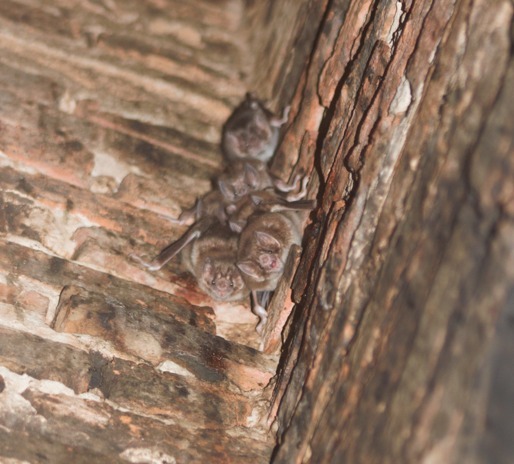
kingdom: Animalia
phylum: Chordata
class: Mammalia
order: Chiroptera
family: Phyllostomidae
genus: Desmodus
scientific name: Desmodus rotundus
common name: Common vampire bat
